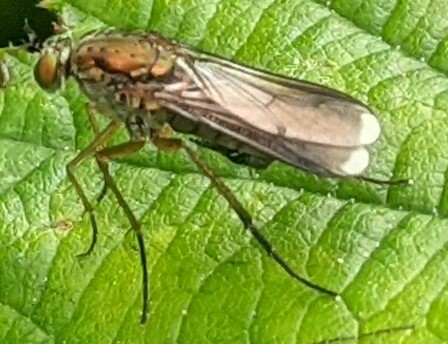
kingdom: Animalia
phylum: Arthropoda
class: Insecta
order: Diptera
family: Dolichopodidae
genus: Poecilobothrus
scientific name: Poecilobothrus nobilitatus
